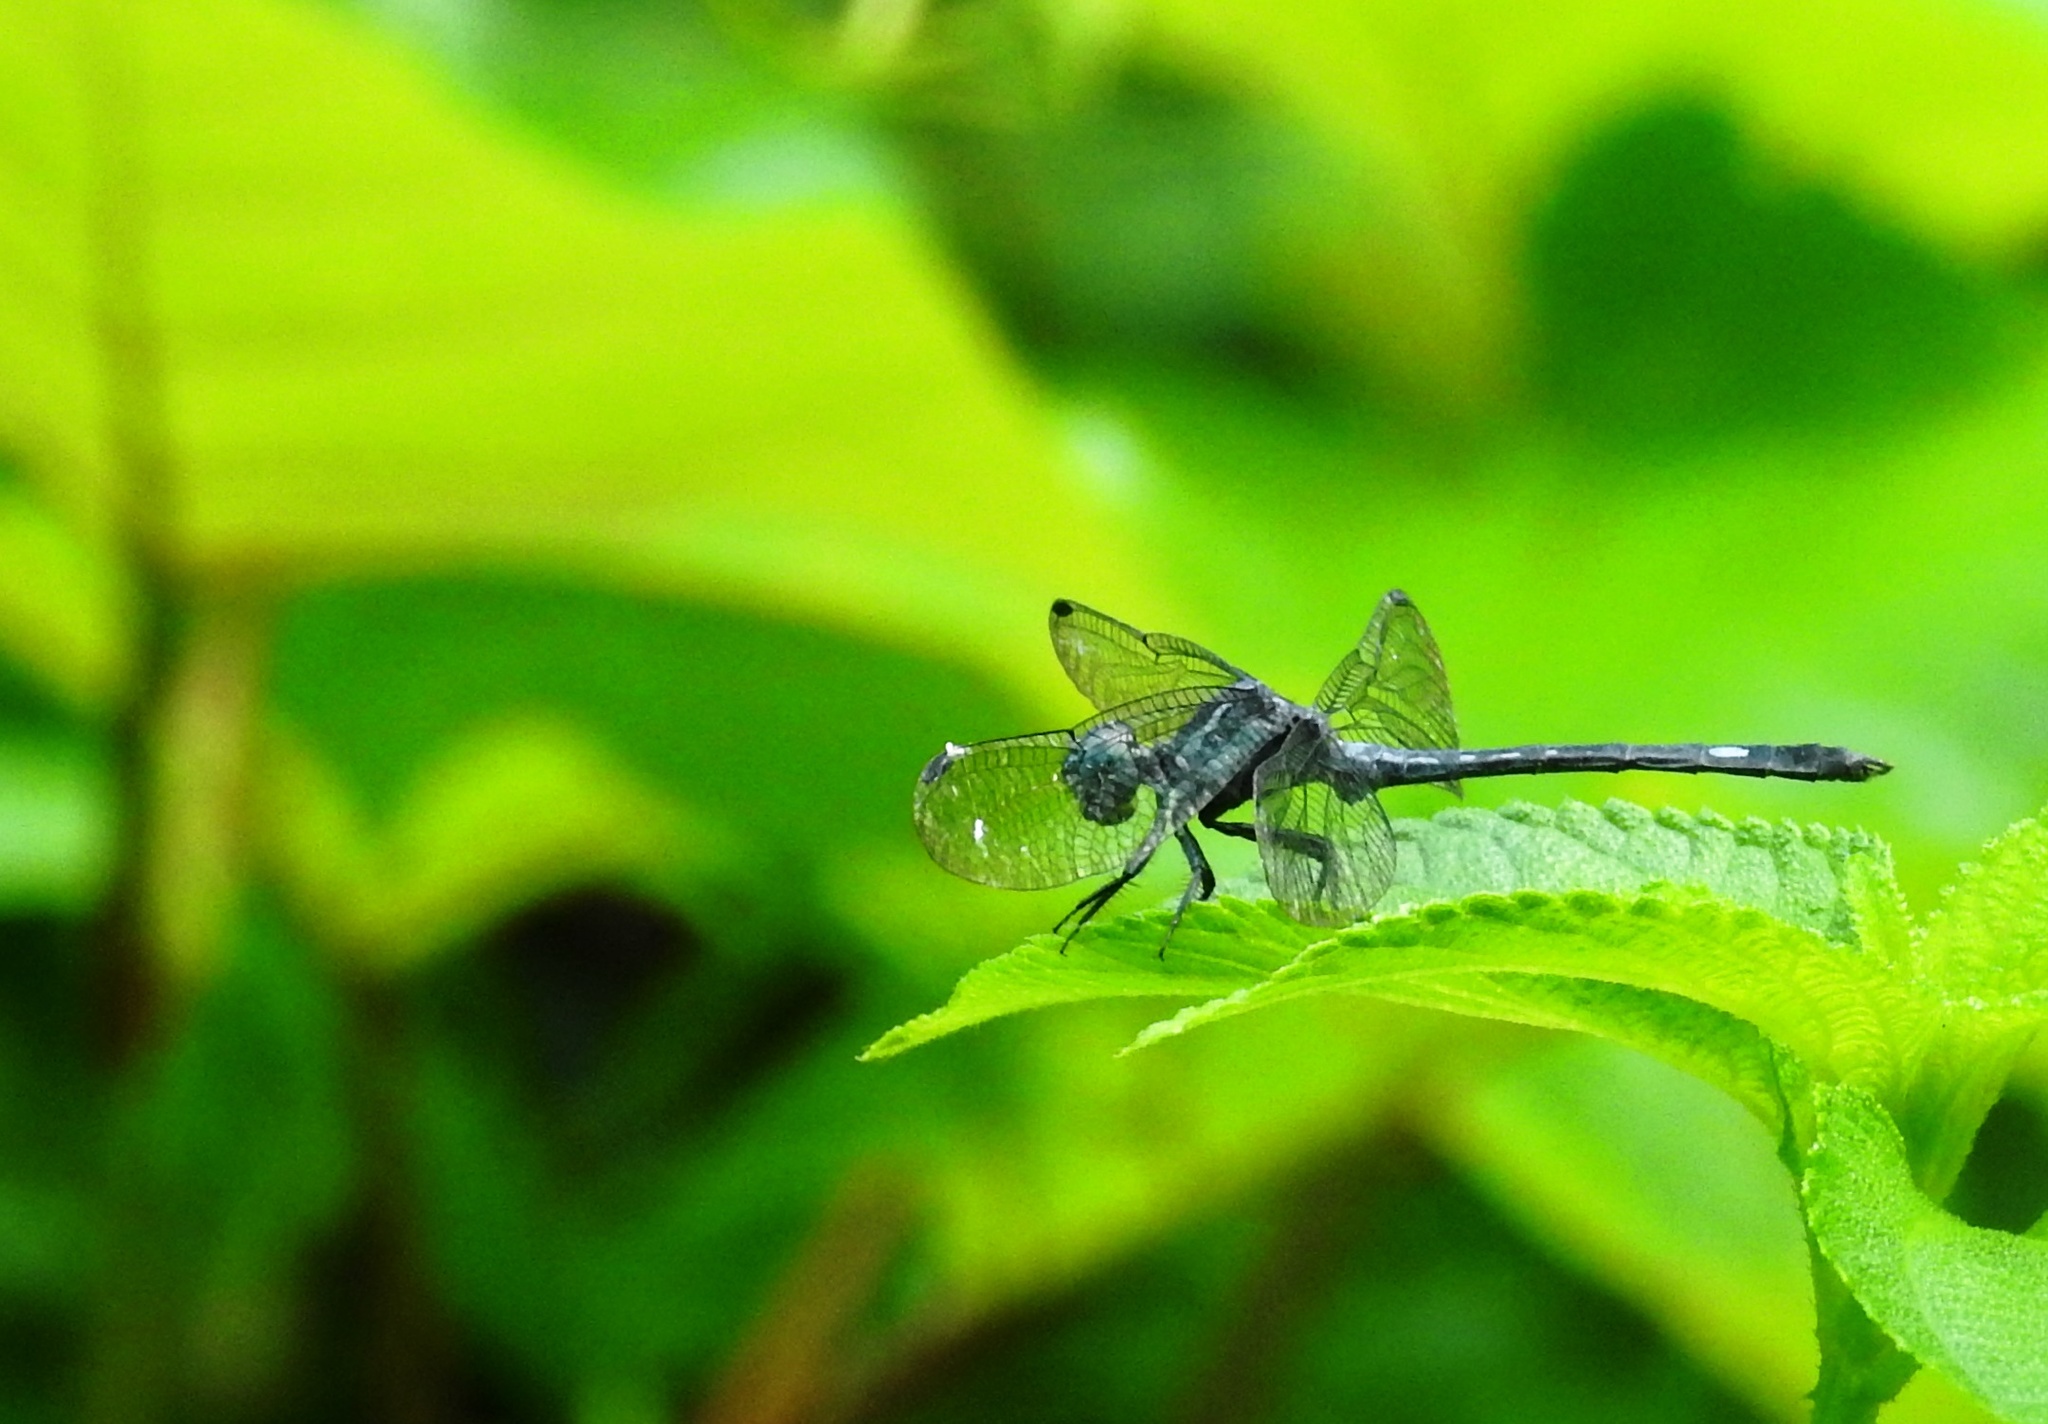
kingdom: Animalia
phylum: Arthropoda
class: Insecta
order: Odonata
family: Libellulidae
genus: Hylaeothemis
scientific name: Hylaeothemis apicalis
